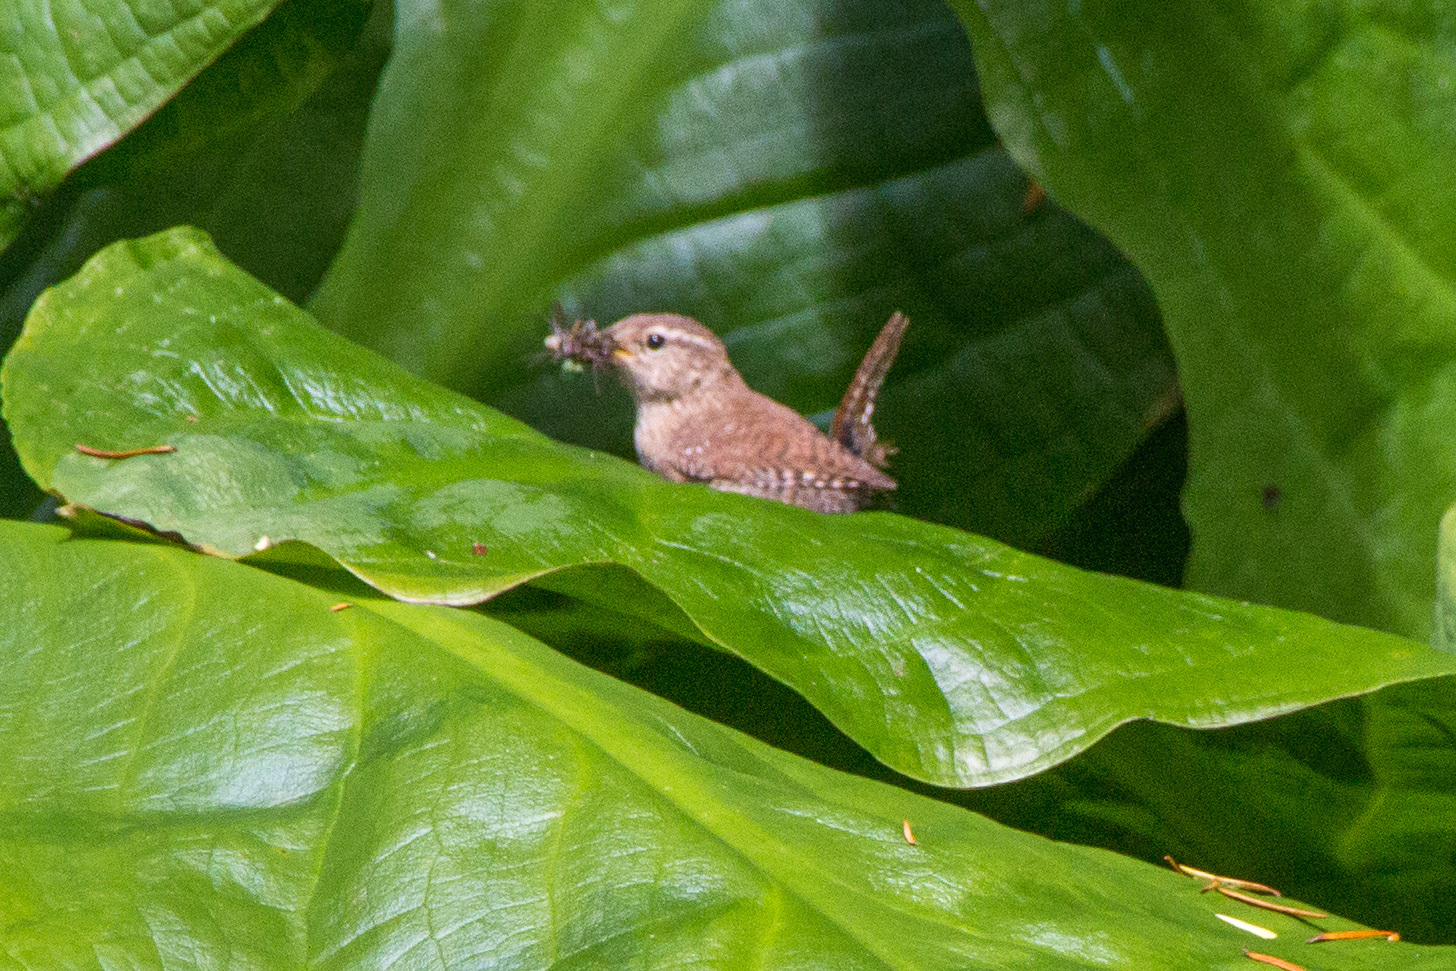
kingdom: Animalia
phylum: Chordata
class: Aves
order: Passeriformes
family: Troglodytidae
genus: Troglodytes
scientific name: Troglodytes troglodytes
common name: Eurasian wren
